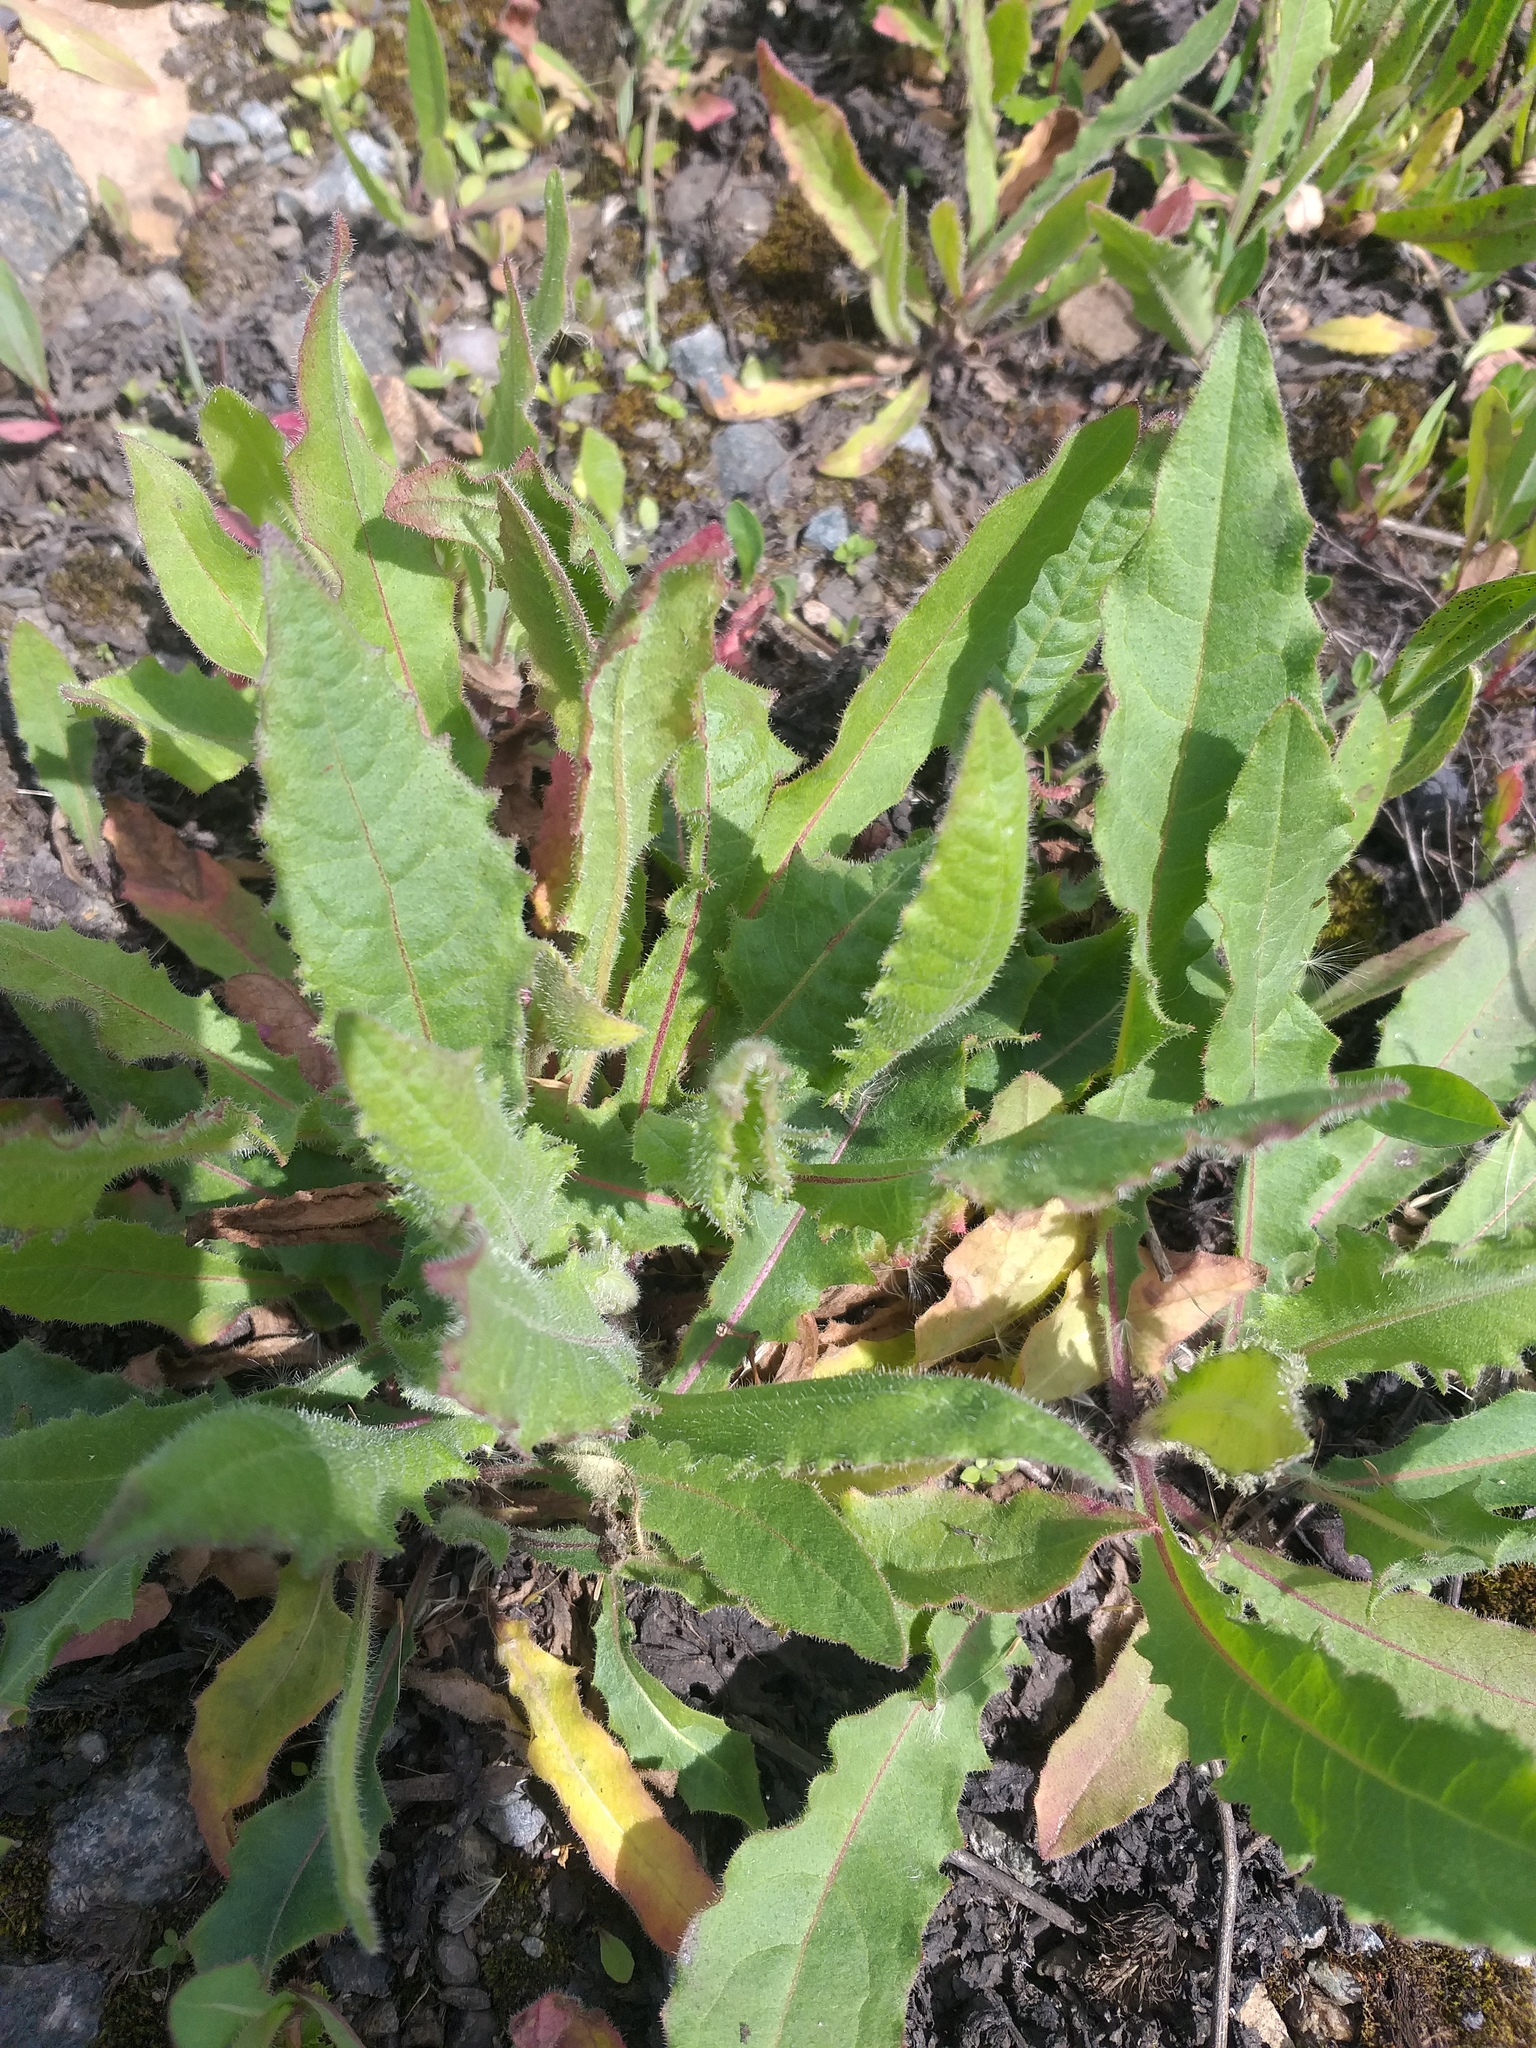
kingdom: Plantae
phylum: Tracheophyta
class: Magnoliopsida
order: Asterales
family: Asteraceae
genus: Picris
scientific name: Picris hieracioides
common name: Hawkweed oxtongue
